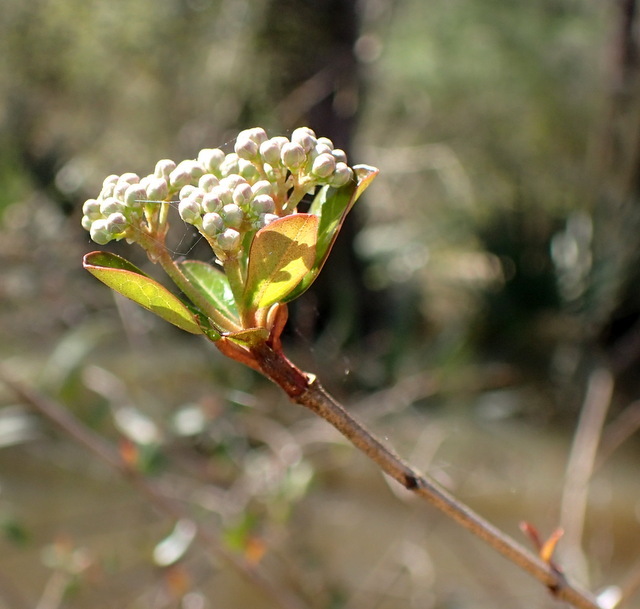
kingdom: Plantae
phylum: Tracheophyta
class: Magnoliopsida
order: Dipsacales
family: Viburnaceae
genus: Viburnum
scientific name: Viburnum obovatum
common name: Walter's viburnum
